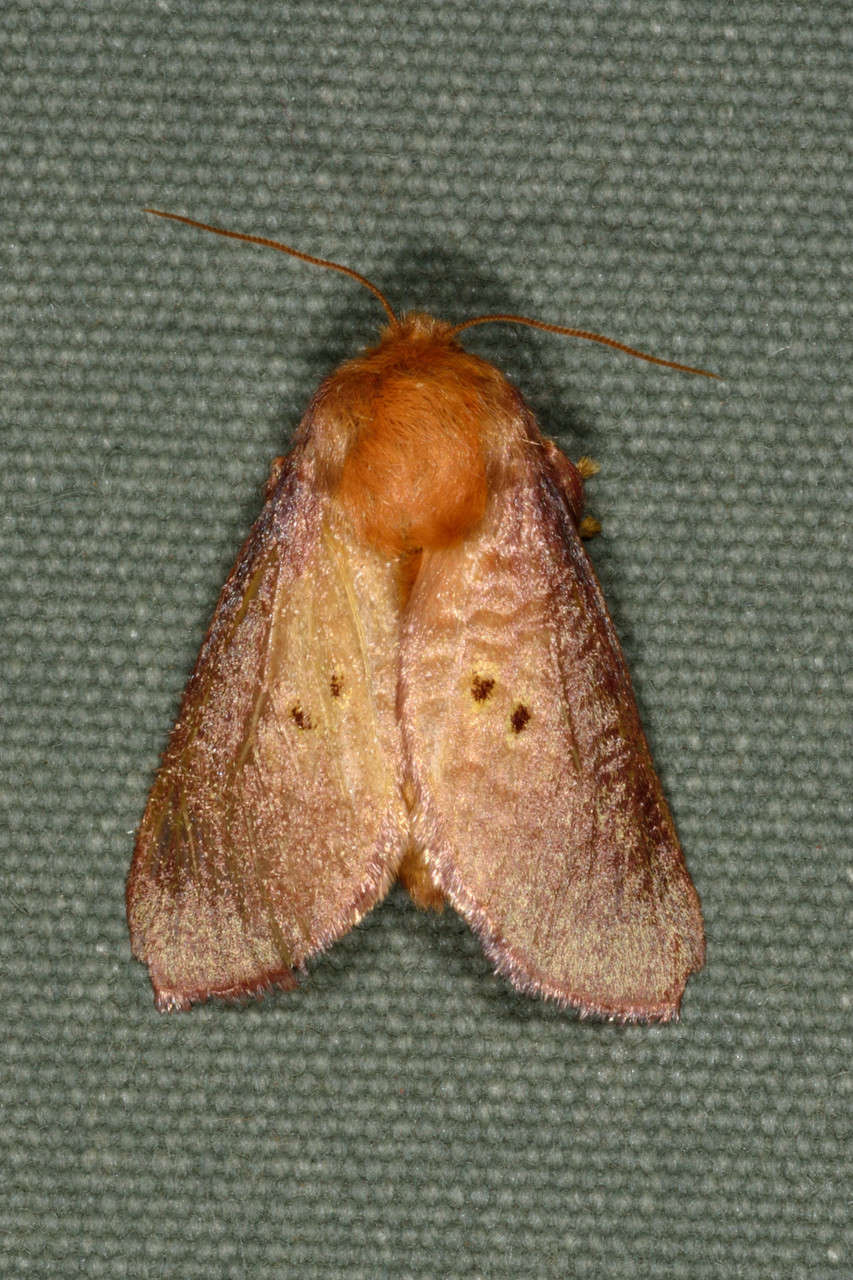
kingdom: Animalia
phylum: Arthropoda
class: Insecta
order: Lepidoptera
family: Limacodidae
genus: Doratifera
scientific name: Doratifera quadriguttata
